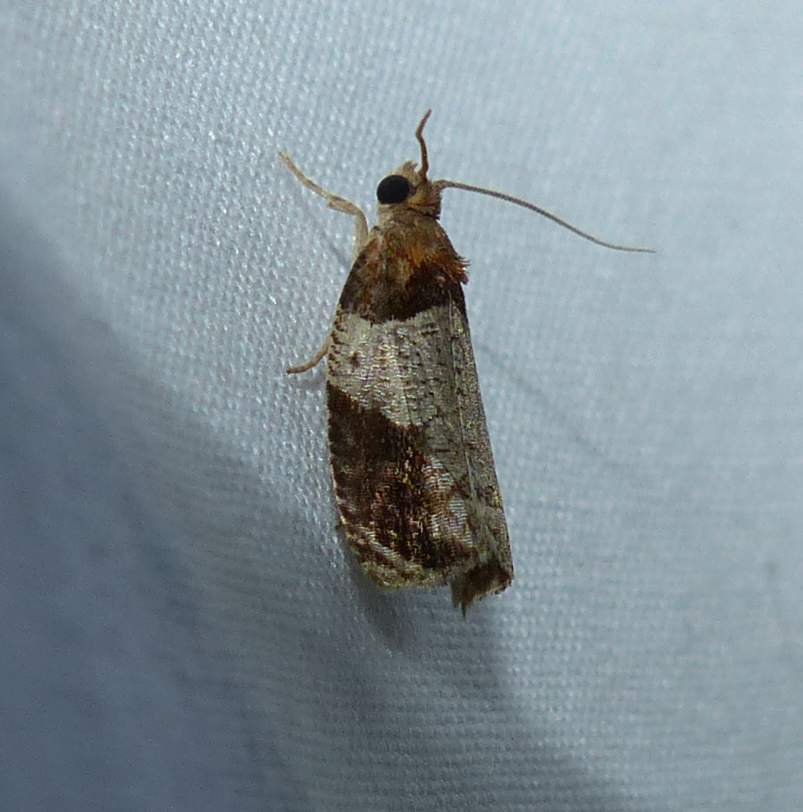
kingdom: Animalia
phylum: Arthropoda
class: Insecta
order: Lepidoptera
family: Tortricidae
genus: Olethreutes
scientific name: Olethreutes ferriferana
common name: Hydrangea leaftier moth
